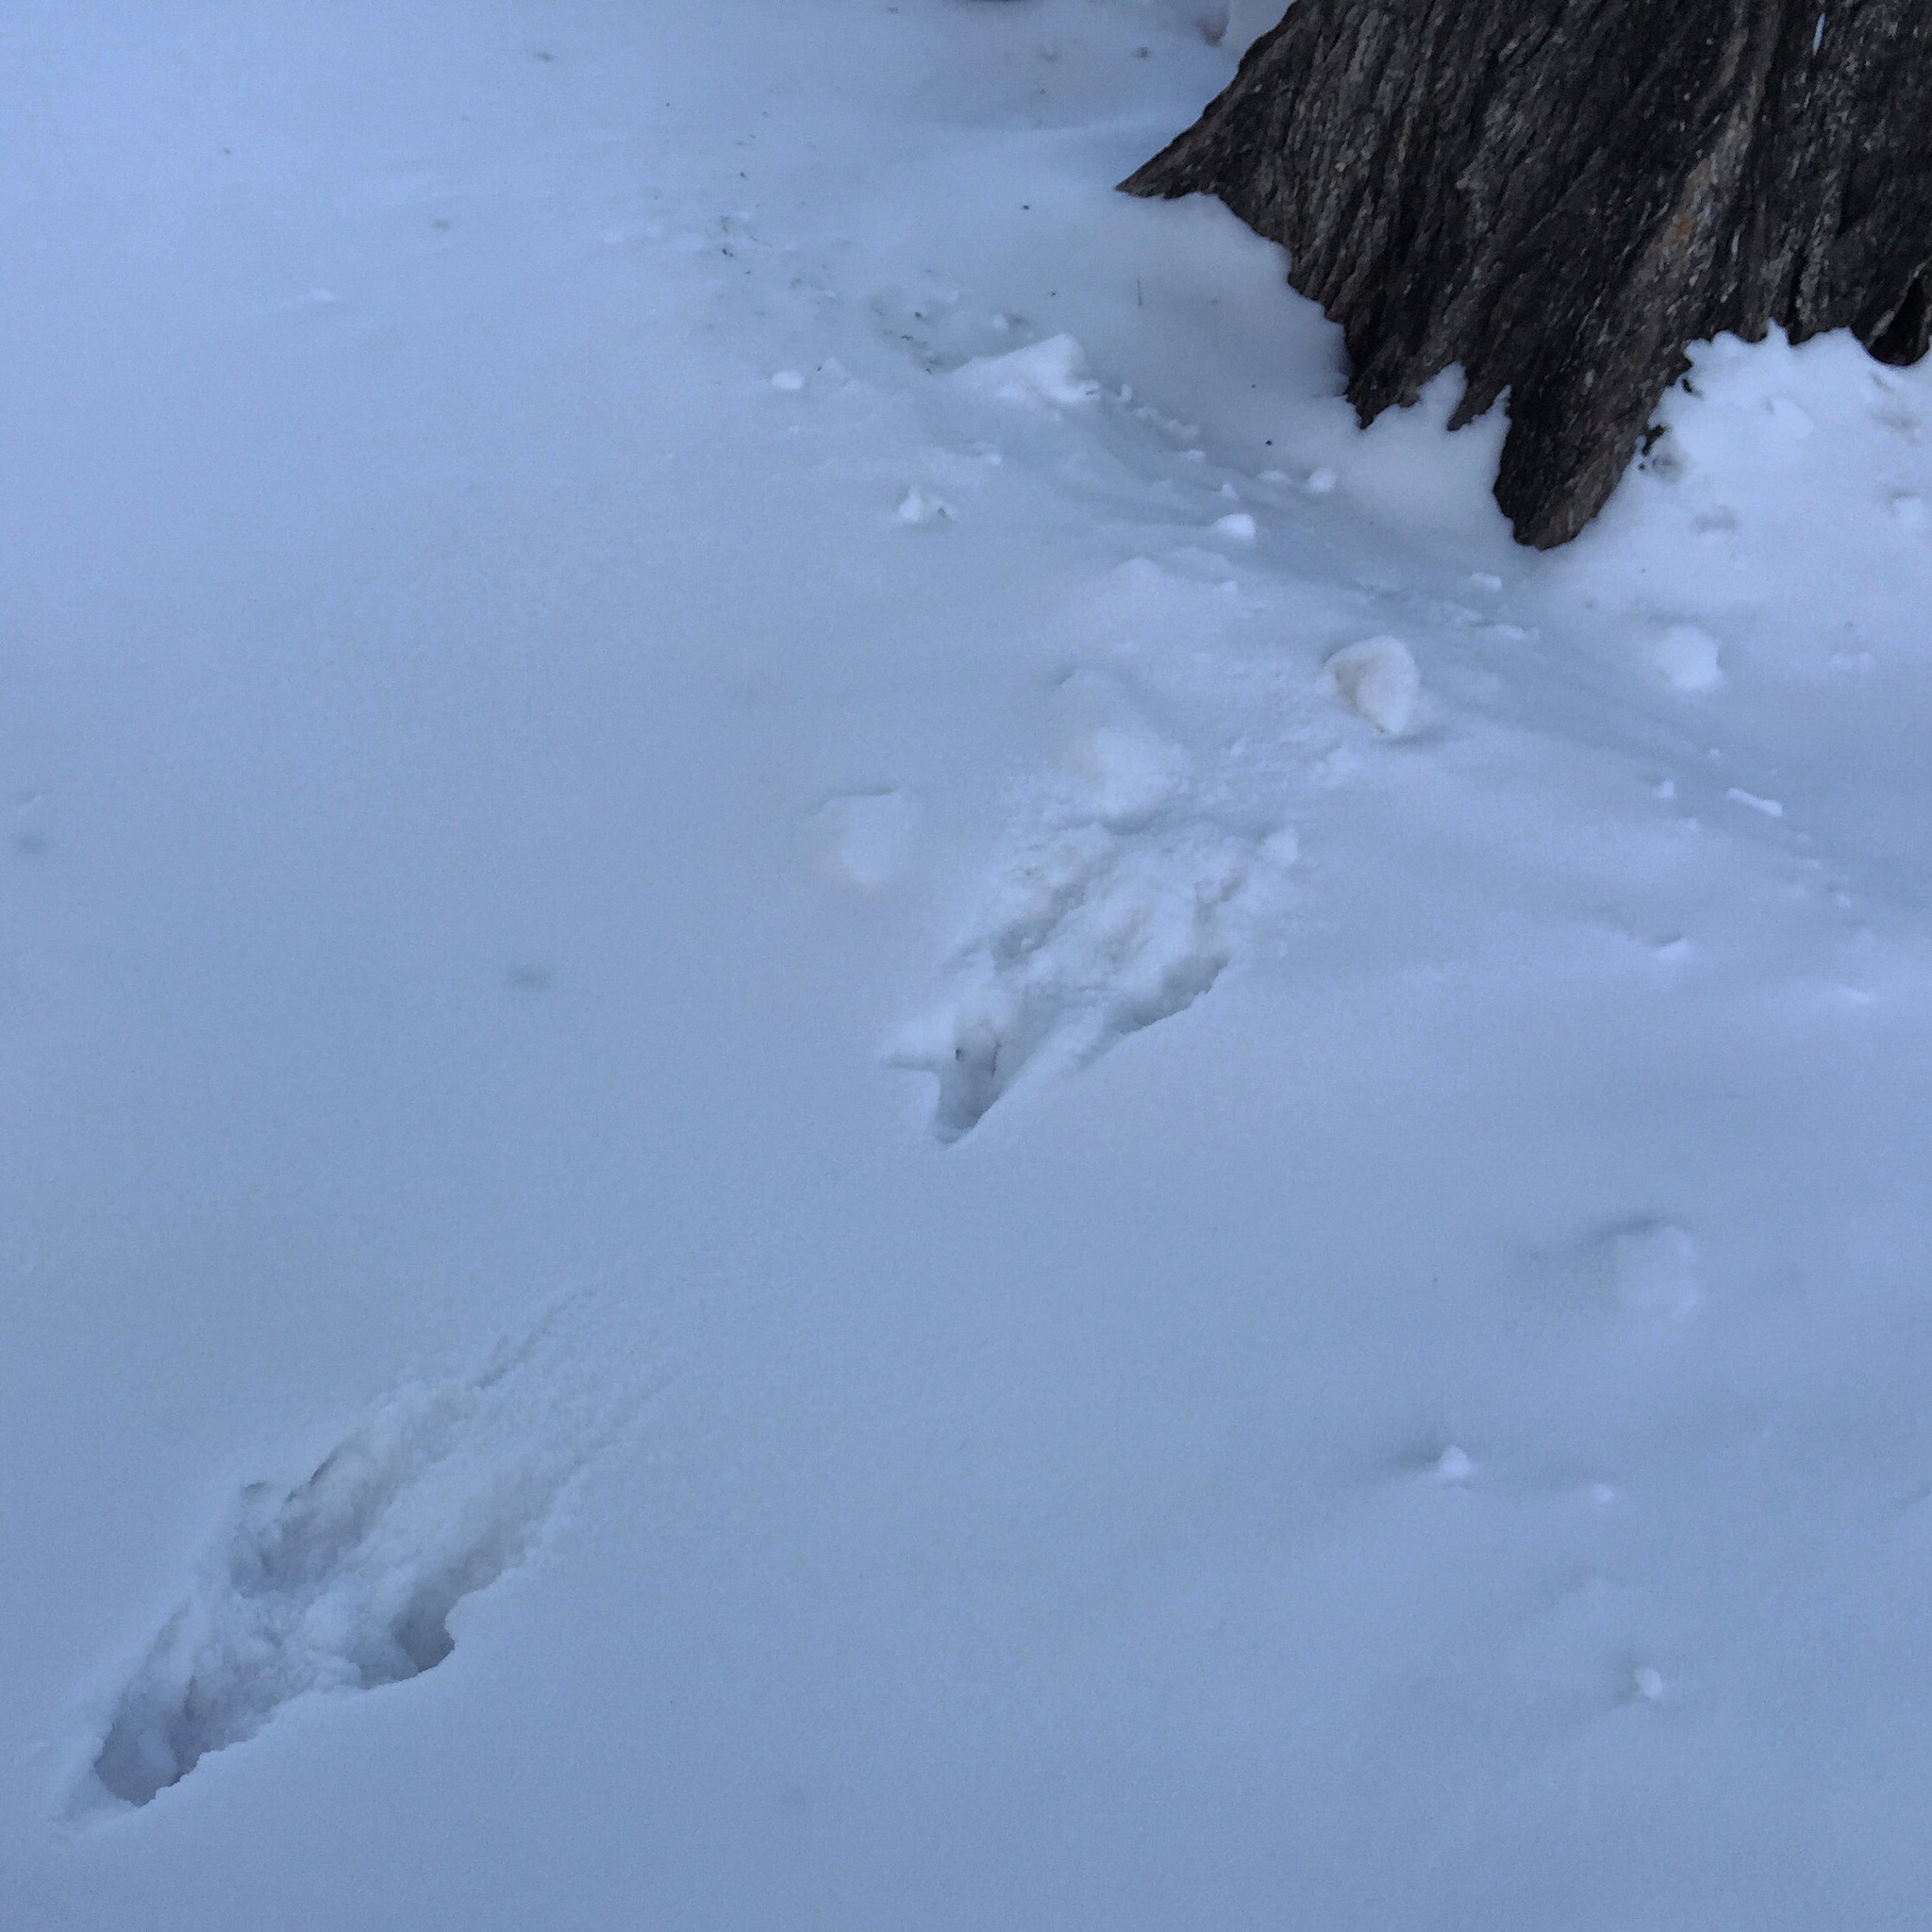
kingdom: Animalia
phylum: Chordata
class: Mammalia
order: Rodentia
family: Sciuridae
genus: Sciurus
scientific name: Sciurus carolinensis
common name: Eastern gray squirrel
